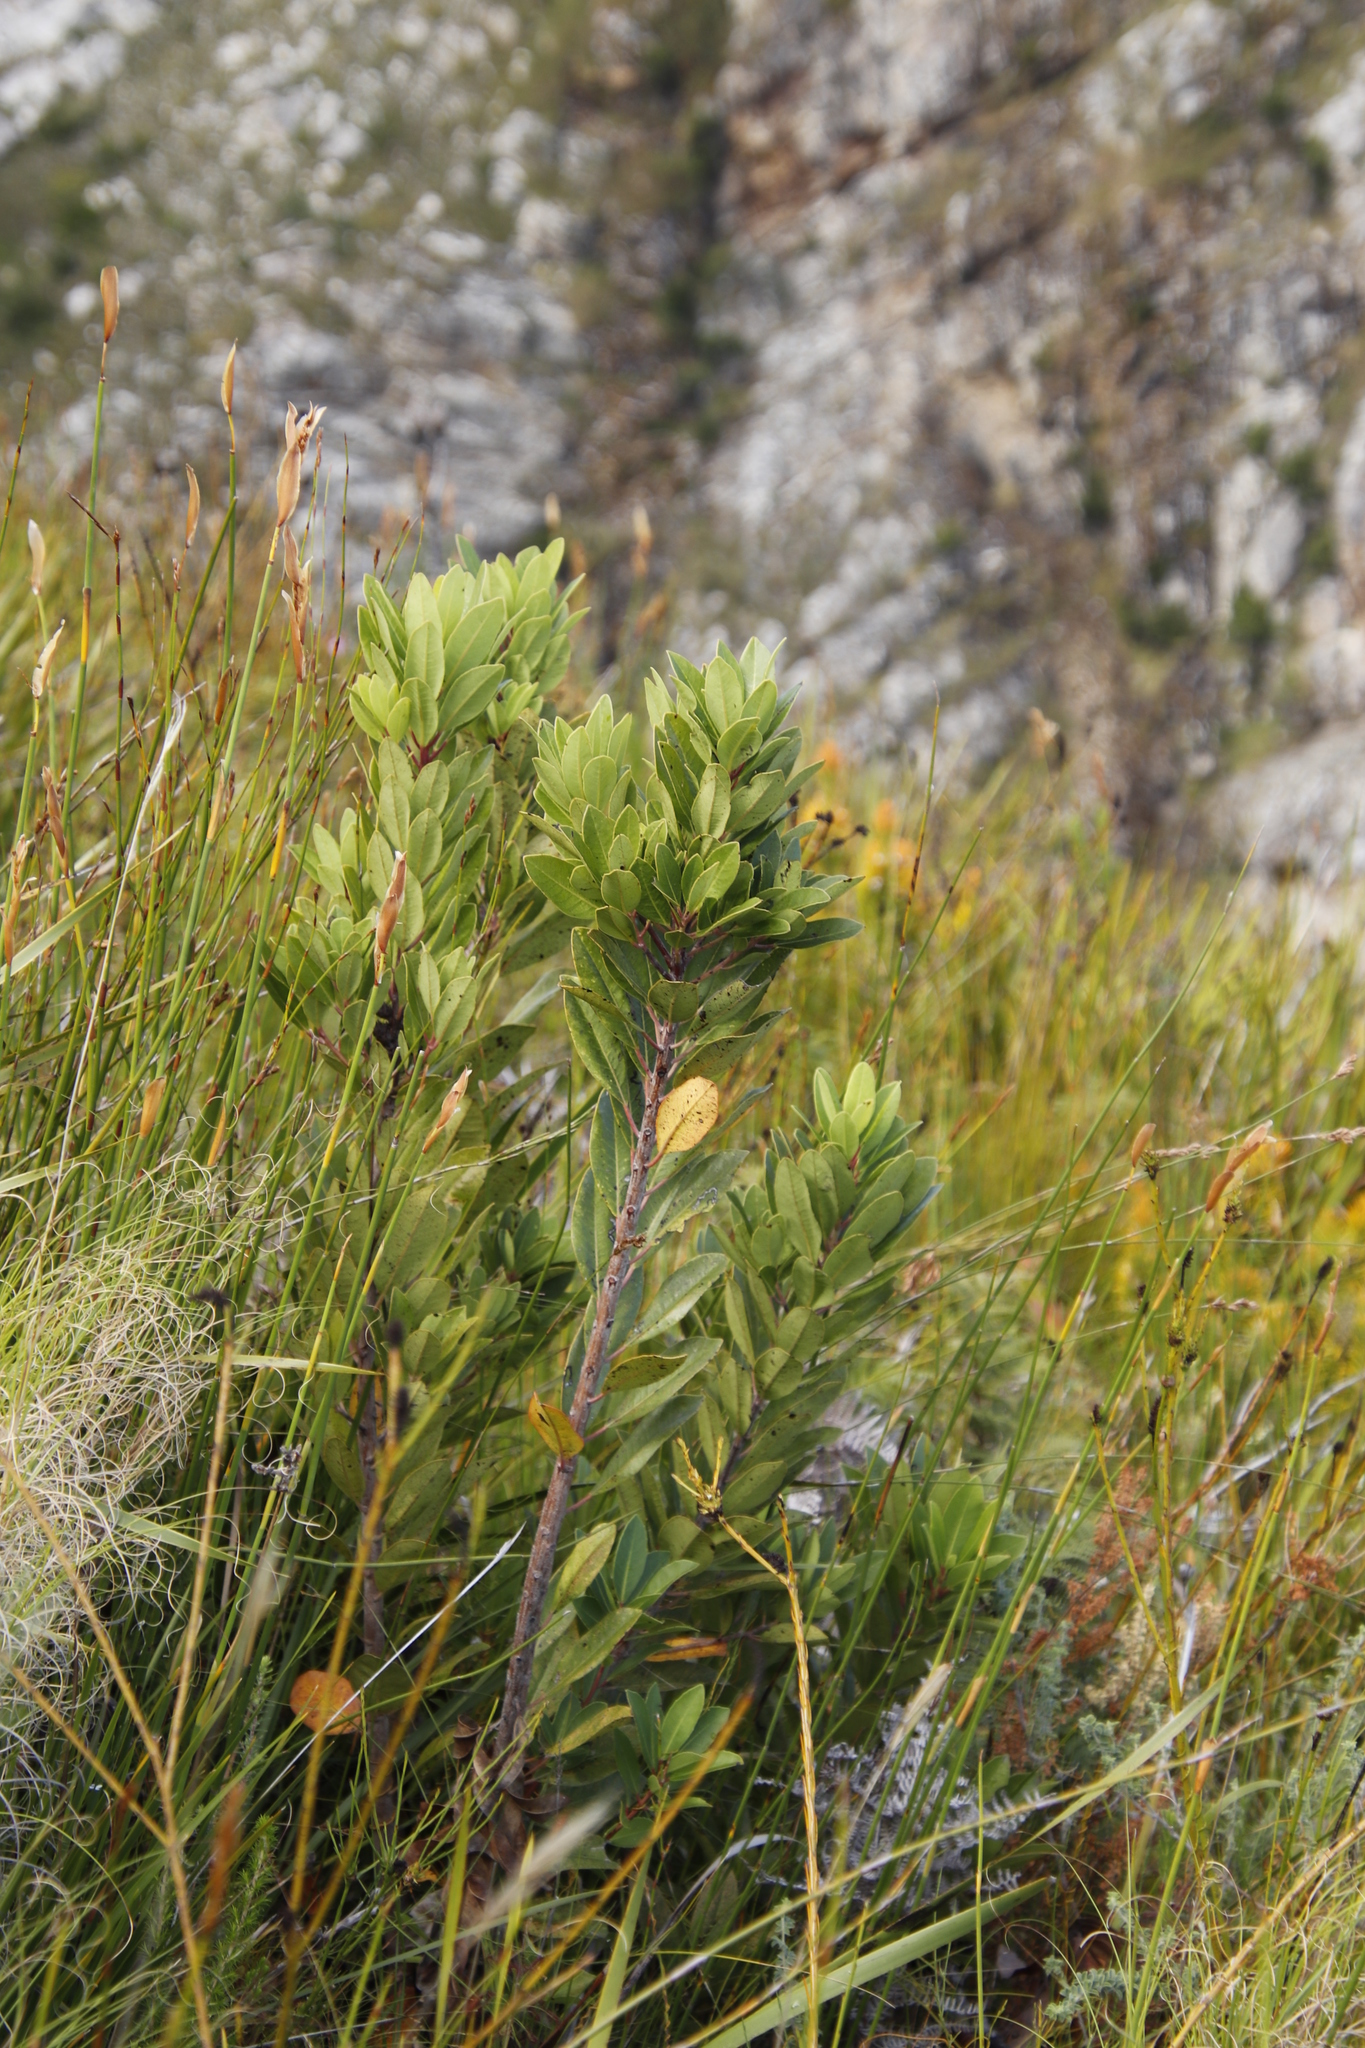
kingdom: Plantae
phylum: Tracheophyta
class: Magnoliopsida
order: Sapindales
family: Anacardiaceae
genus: Laurophyllus
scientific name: Laurophyllus capensis
